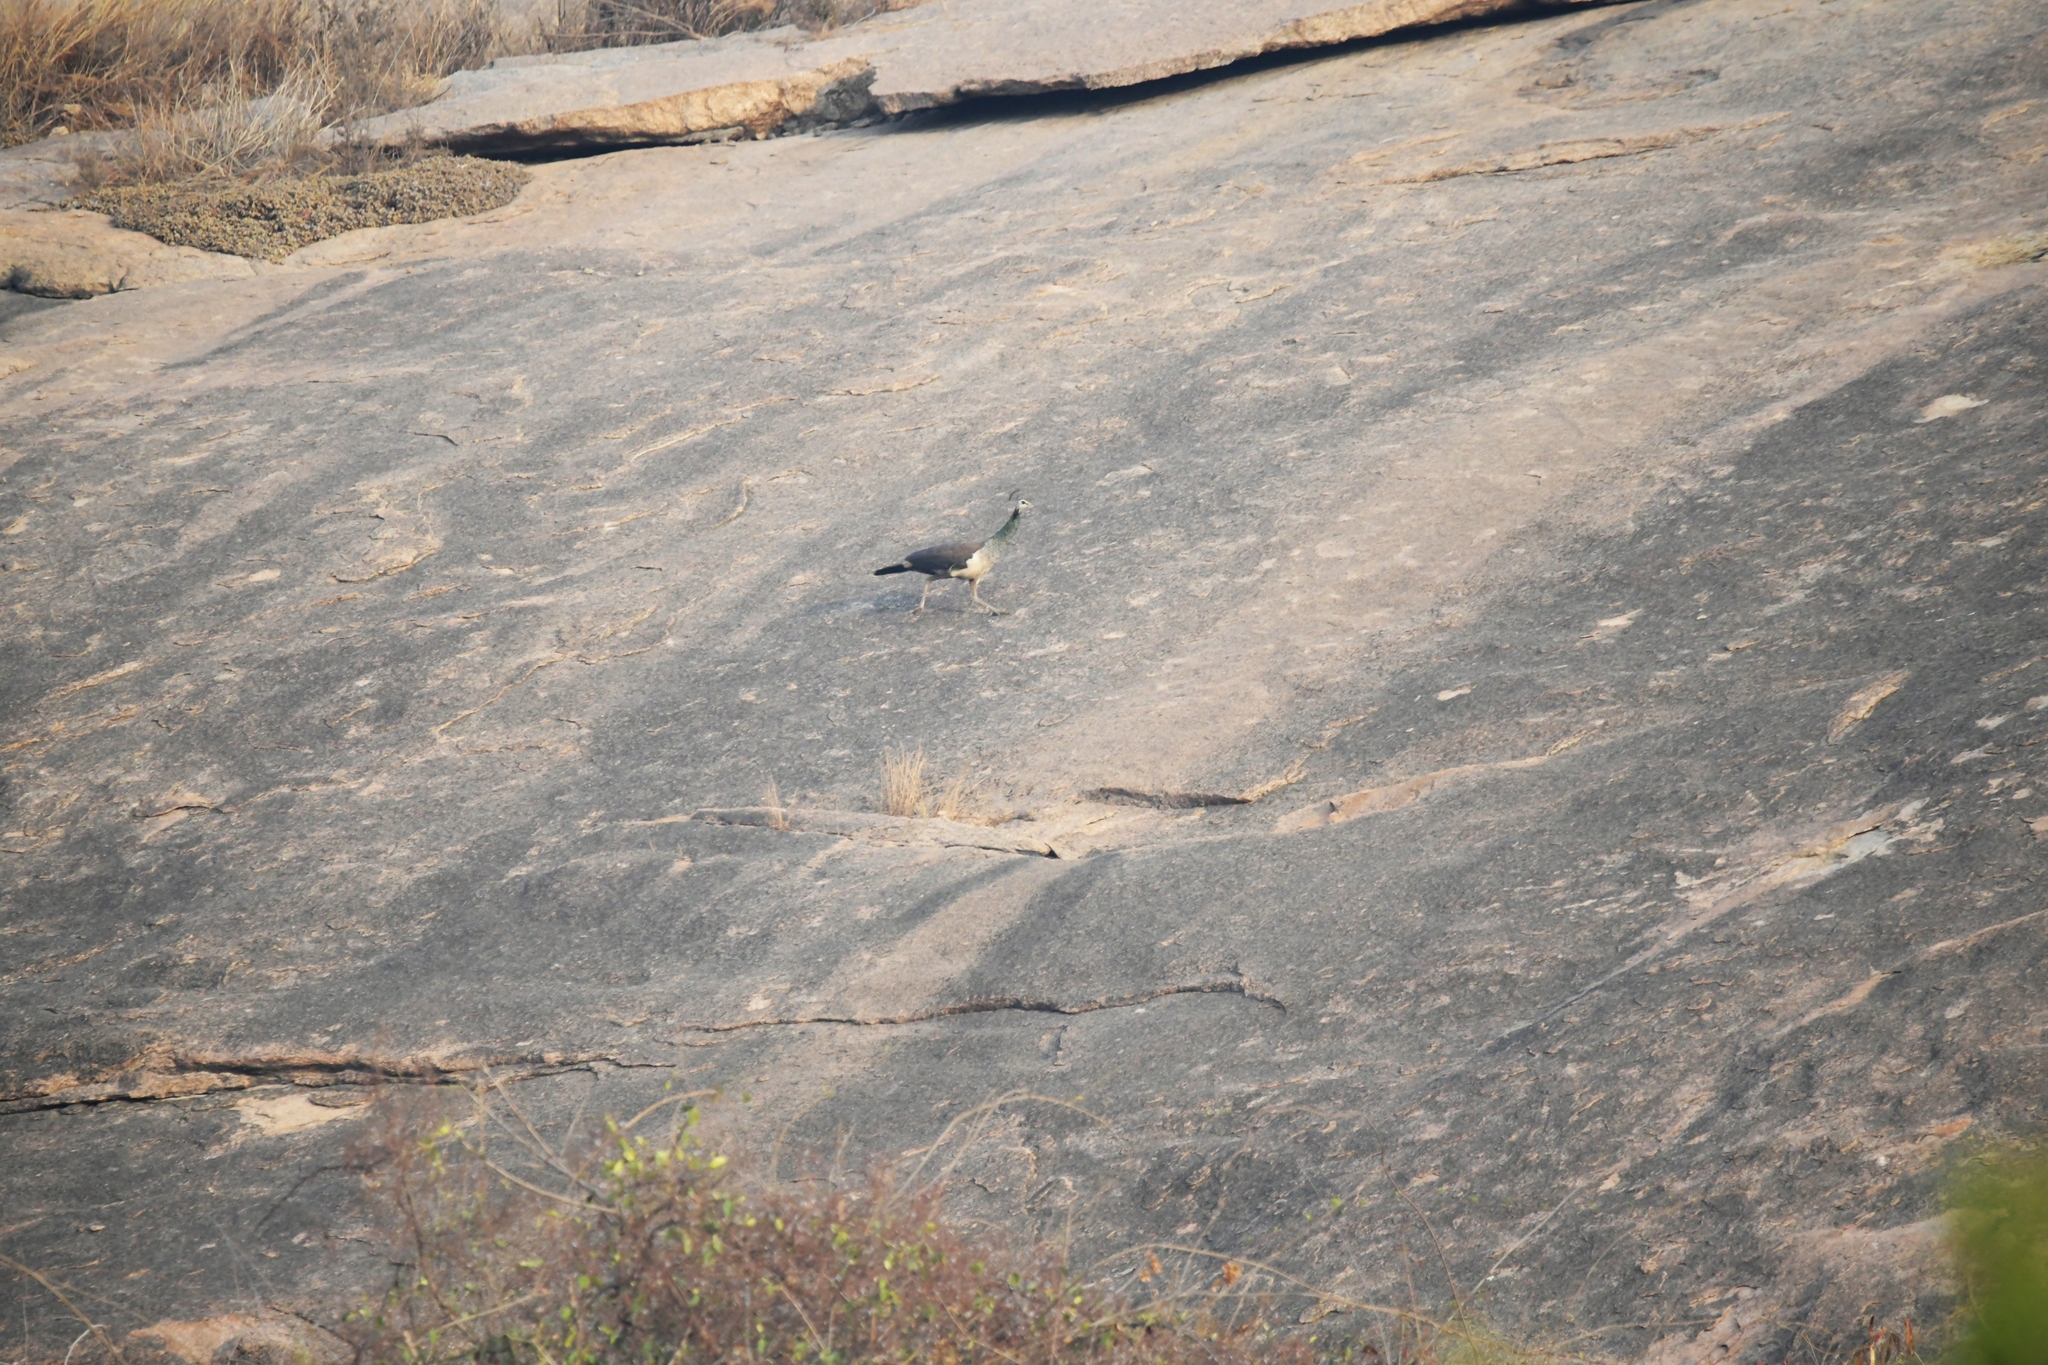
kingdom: Animalia
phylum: Chordata
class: Aves
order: Galliformes
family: Phasianidae
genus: Pavo
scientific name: Pavo cristatus
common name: Indian peafowl
